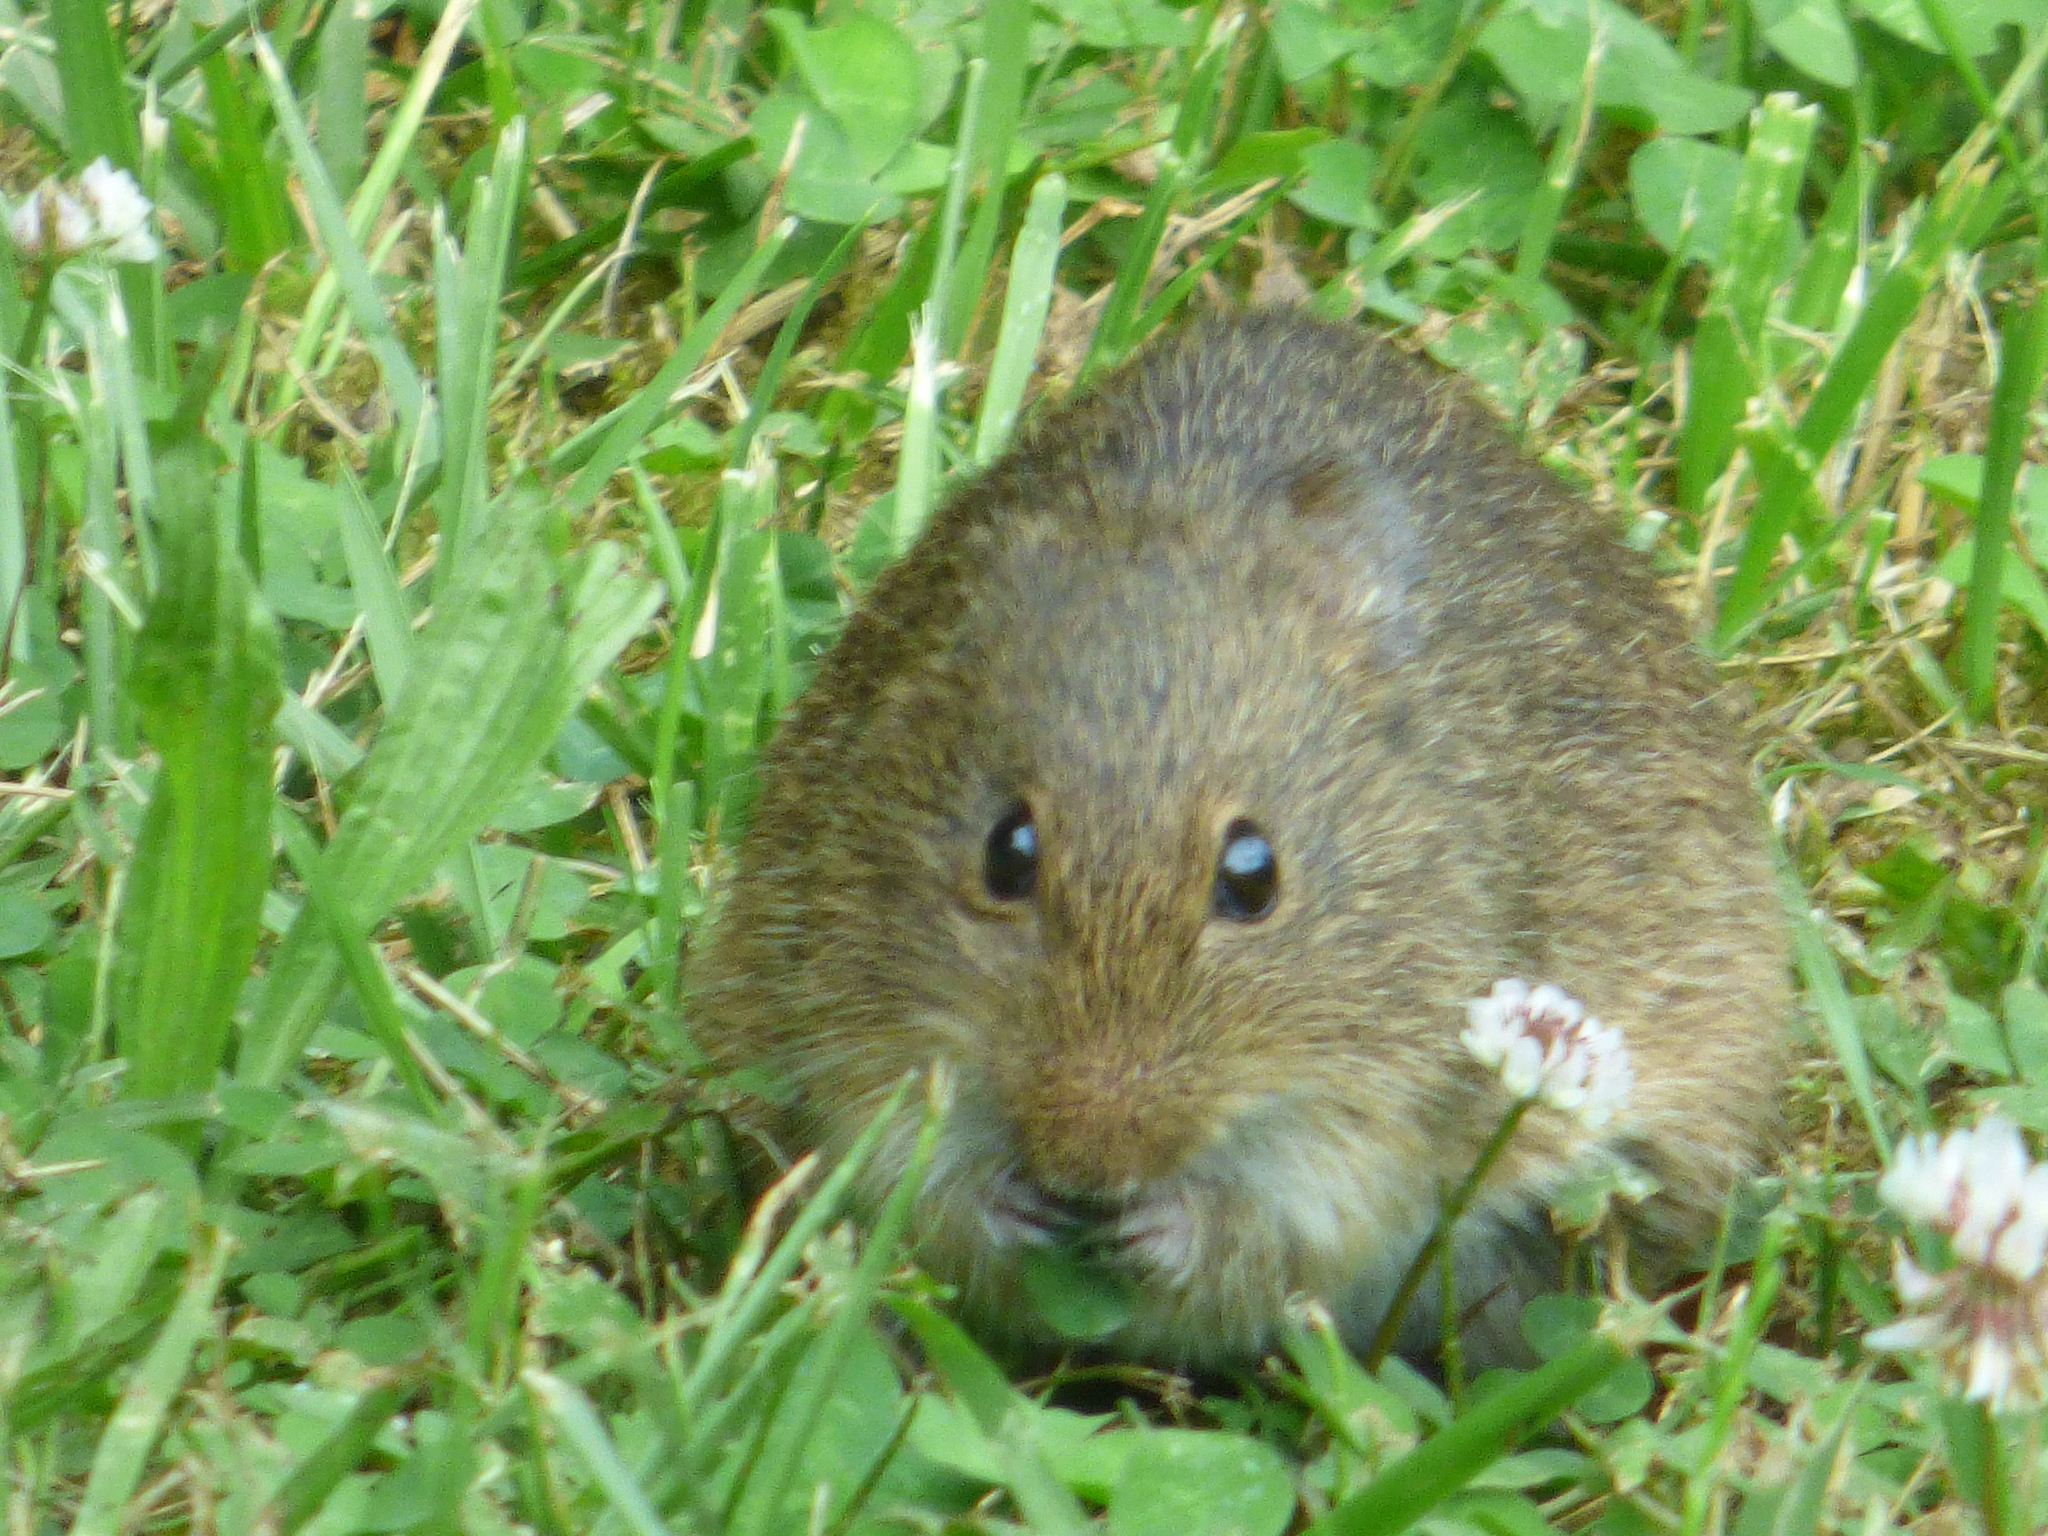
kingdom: Animalia
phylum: Chordata
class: Mammalia
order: Rodentia
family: Cricetidae
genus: Sigmodon
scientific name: Sigmodon hispidus
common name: Hispid cotton rat
